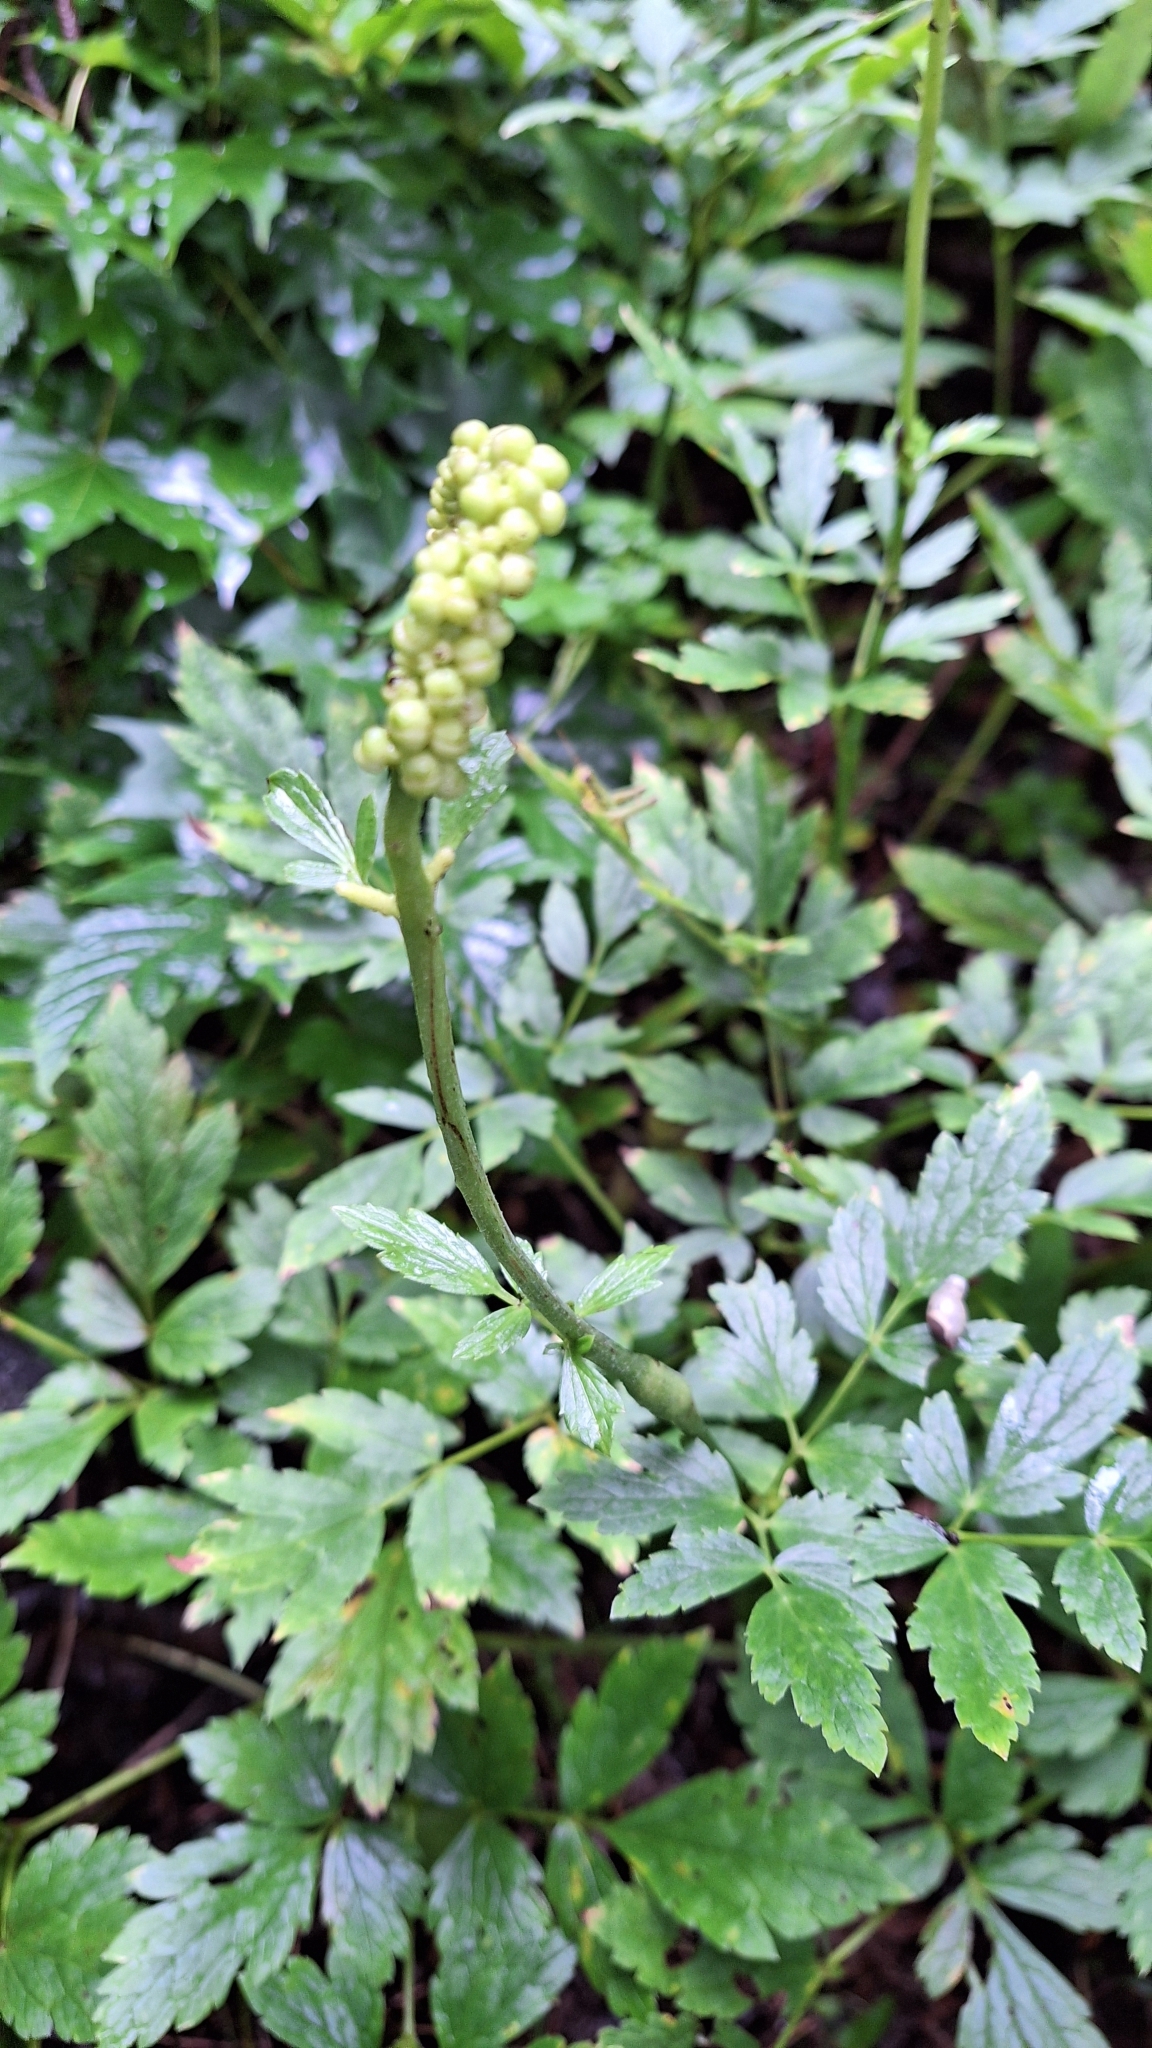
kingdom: Plantae
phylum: Tracheophyta
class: Magnoliopsida
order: Ranunculales
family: Ranunculaceae
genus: Actaea
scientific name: Actaea simplex
